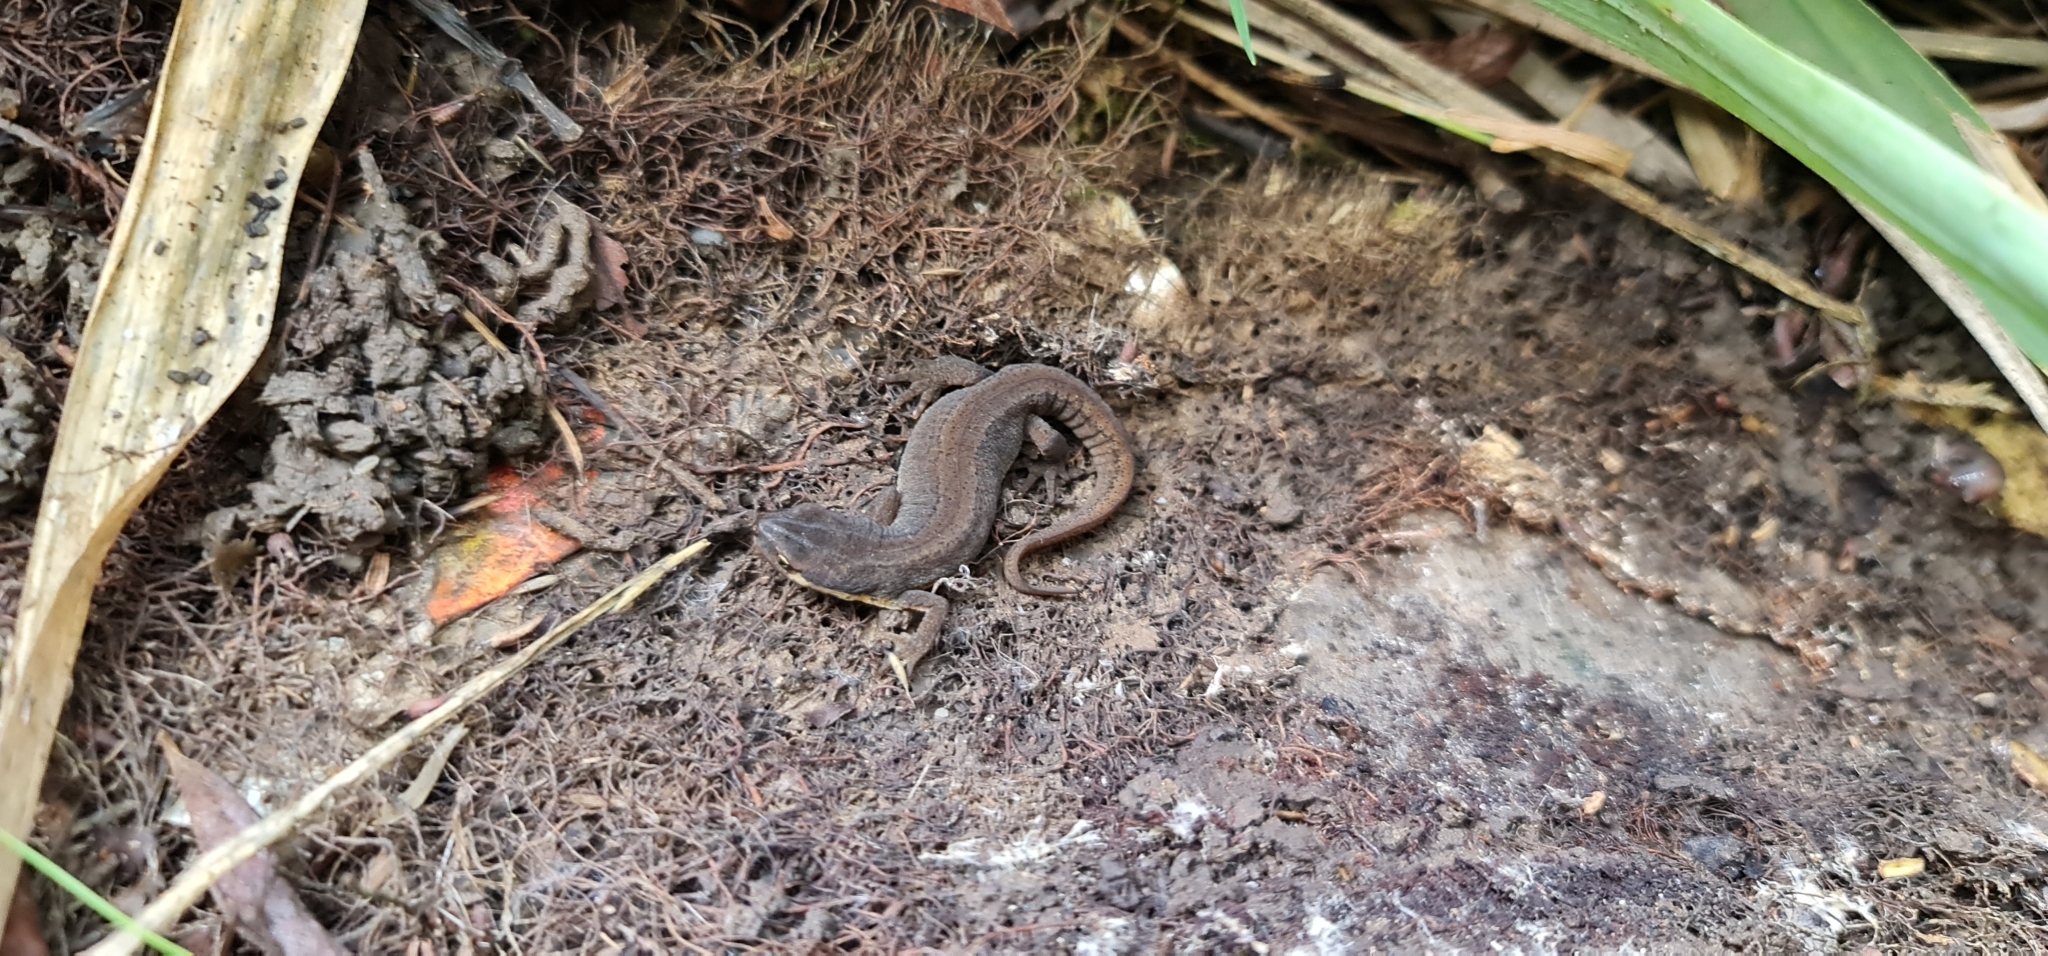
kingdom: Animalia
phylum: Chordata
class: Amphibia
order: Caudata
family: Salamandridae
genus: Lissotriton
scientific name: Lissotriton vulgaris
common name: Smooth newt
